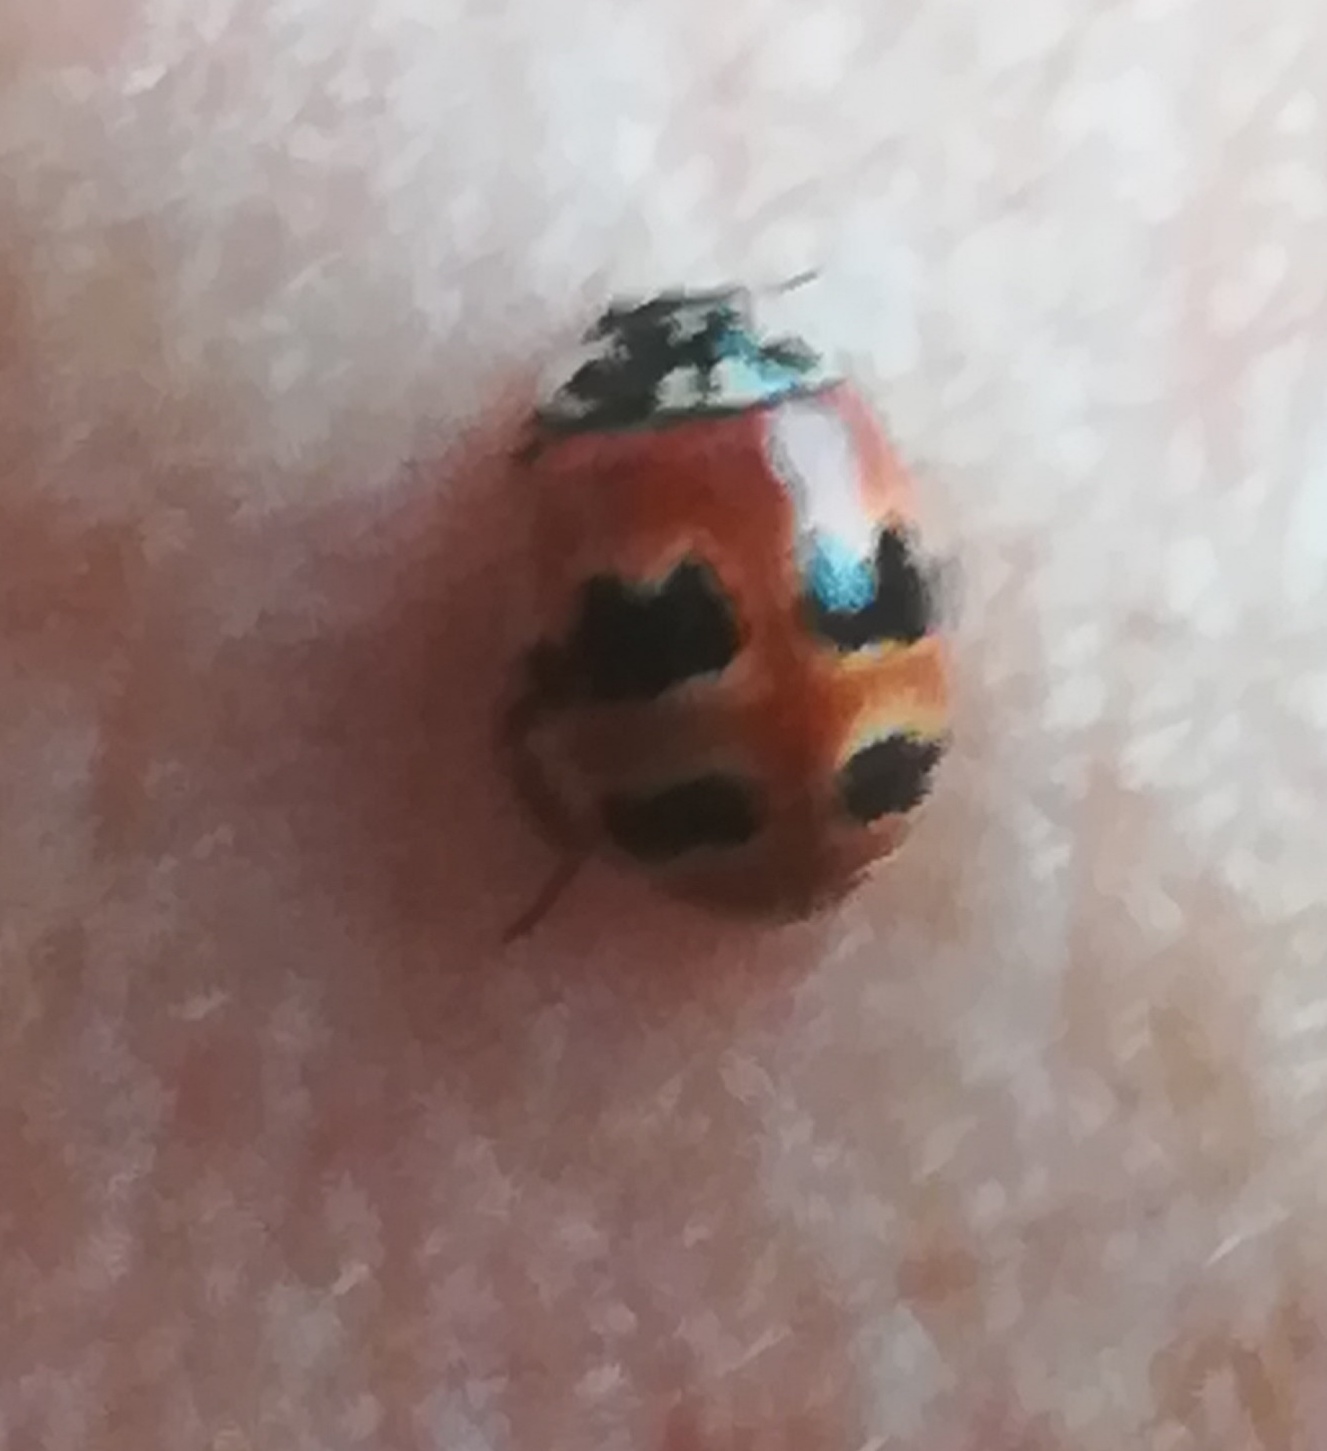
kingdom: Animalia
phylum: Arthropoda
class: Insecta
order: Coleoptera
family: Coccinellidae
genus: Adalia
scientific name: Adalia bipunctata
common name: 2-spot ladybird
